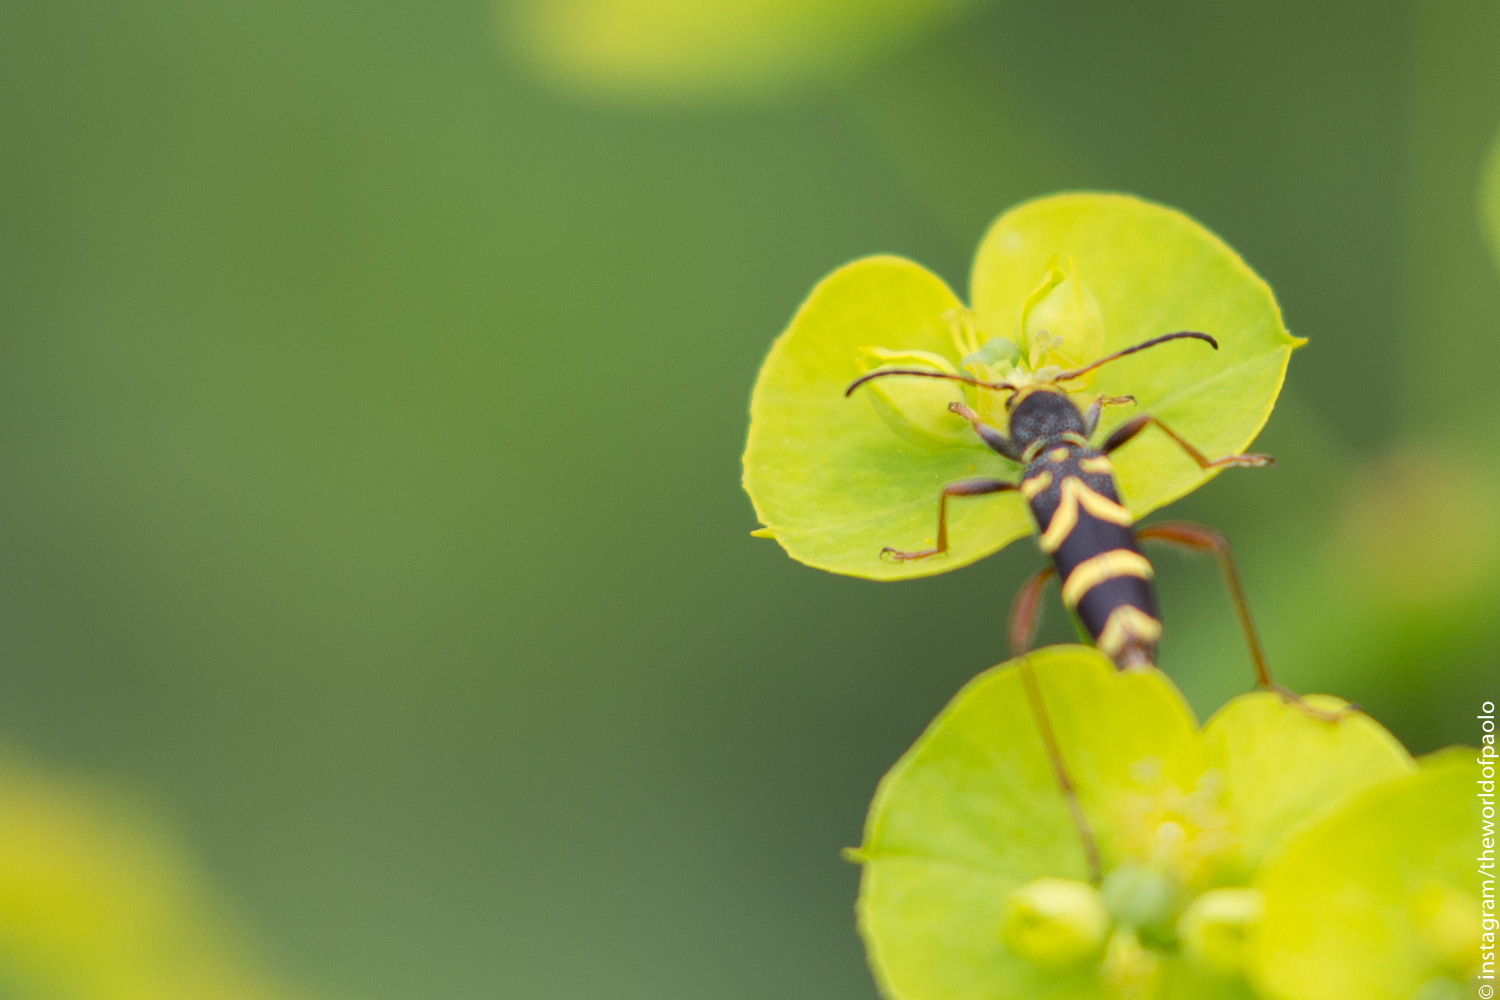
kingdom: Animalia
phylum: Arthropoda
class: Insecta
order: Coleoptera
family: Cerambycidae
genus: Clytus
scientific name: Clytus arietis
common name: Wasp beetle
